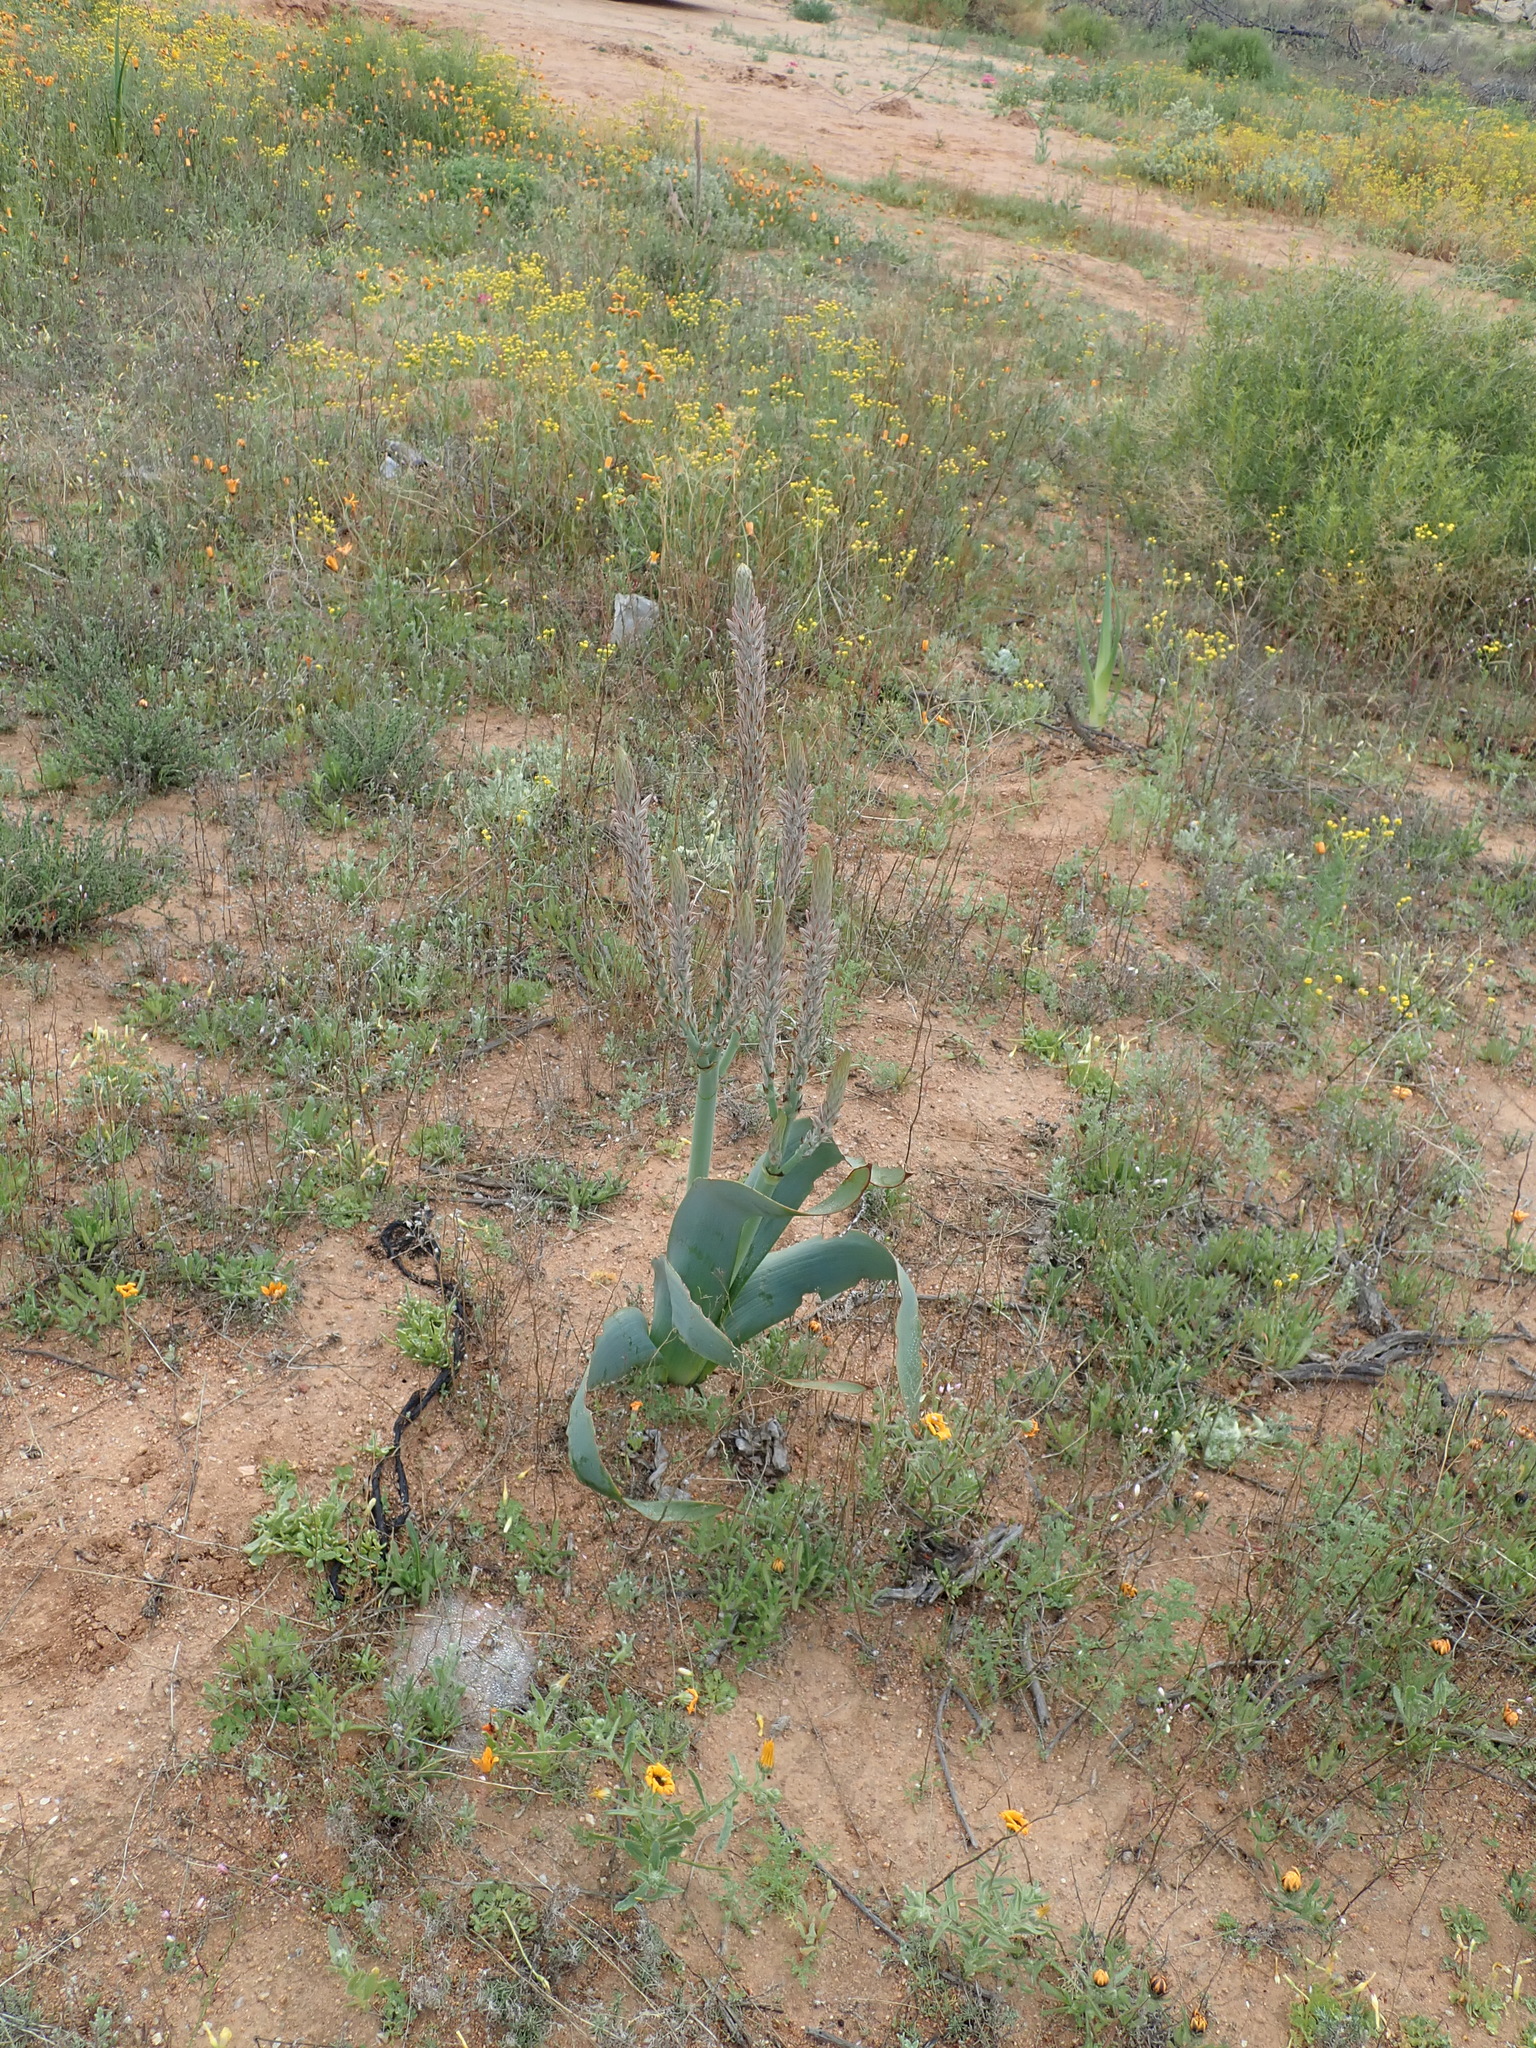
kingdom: Plantae
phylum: Tracheophyta
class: Liliopsida
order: Asparagales
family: Asphodelaceae
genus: Trachyandra
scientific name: Trachyandra falcata
